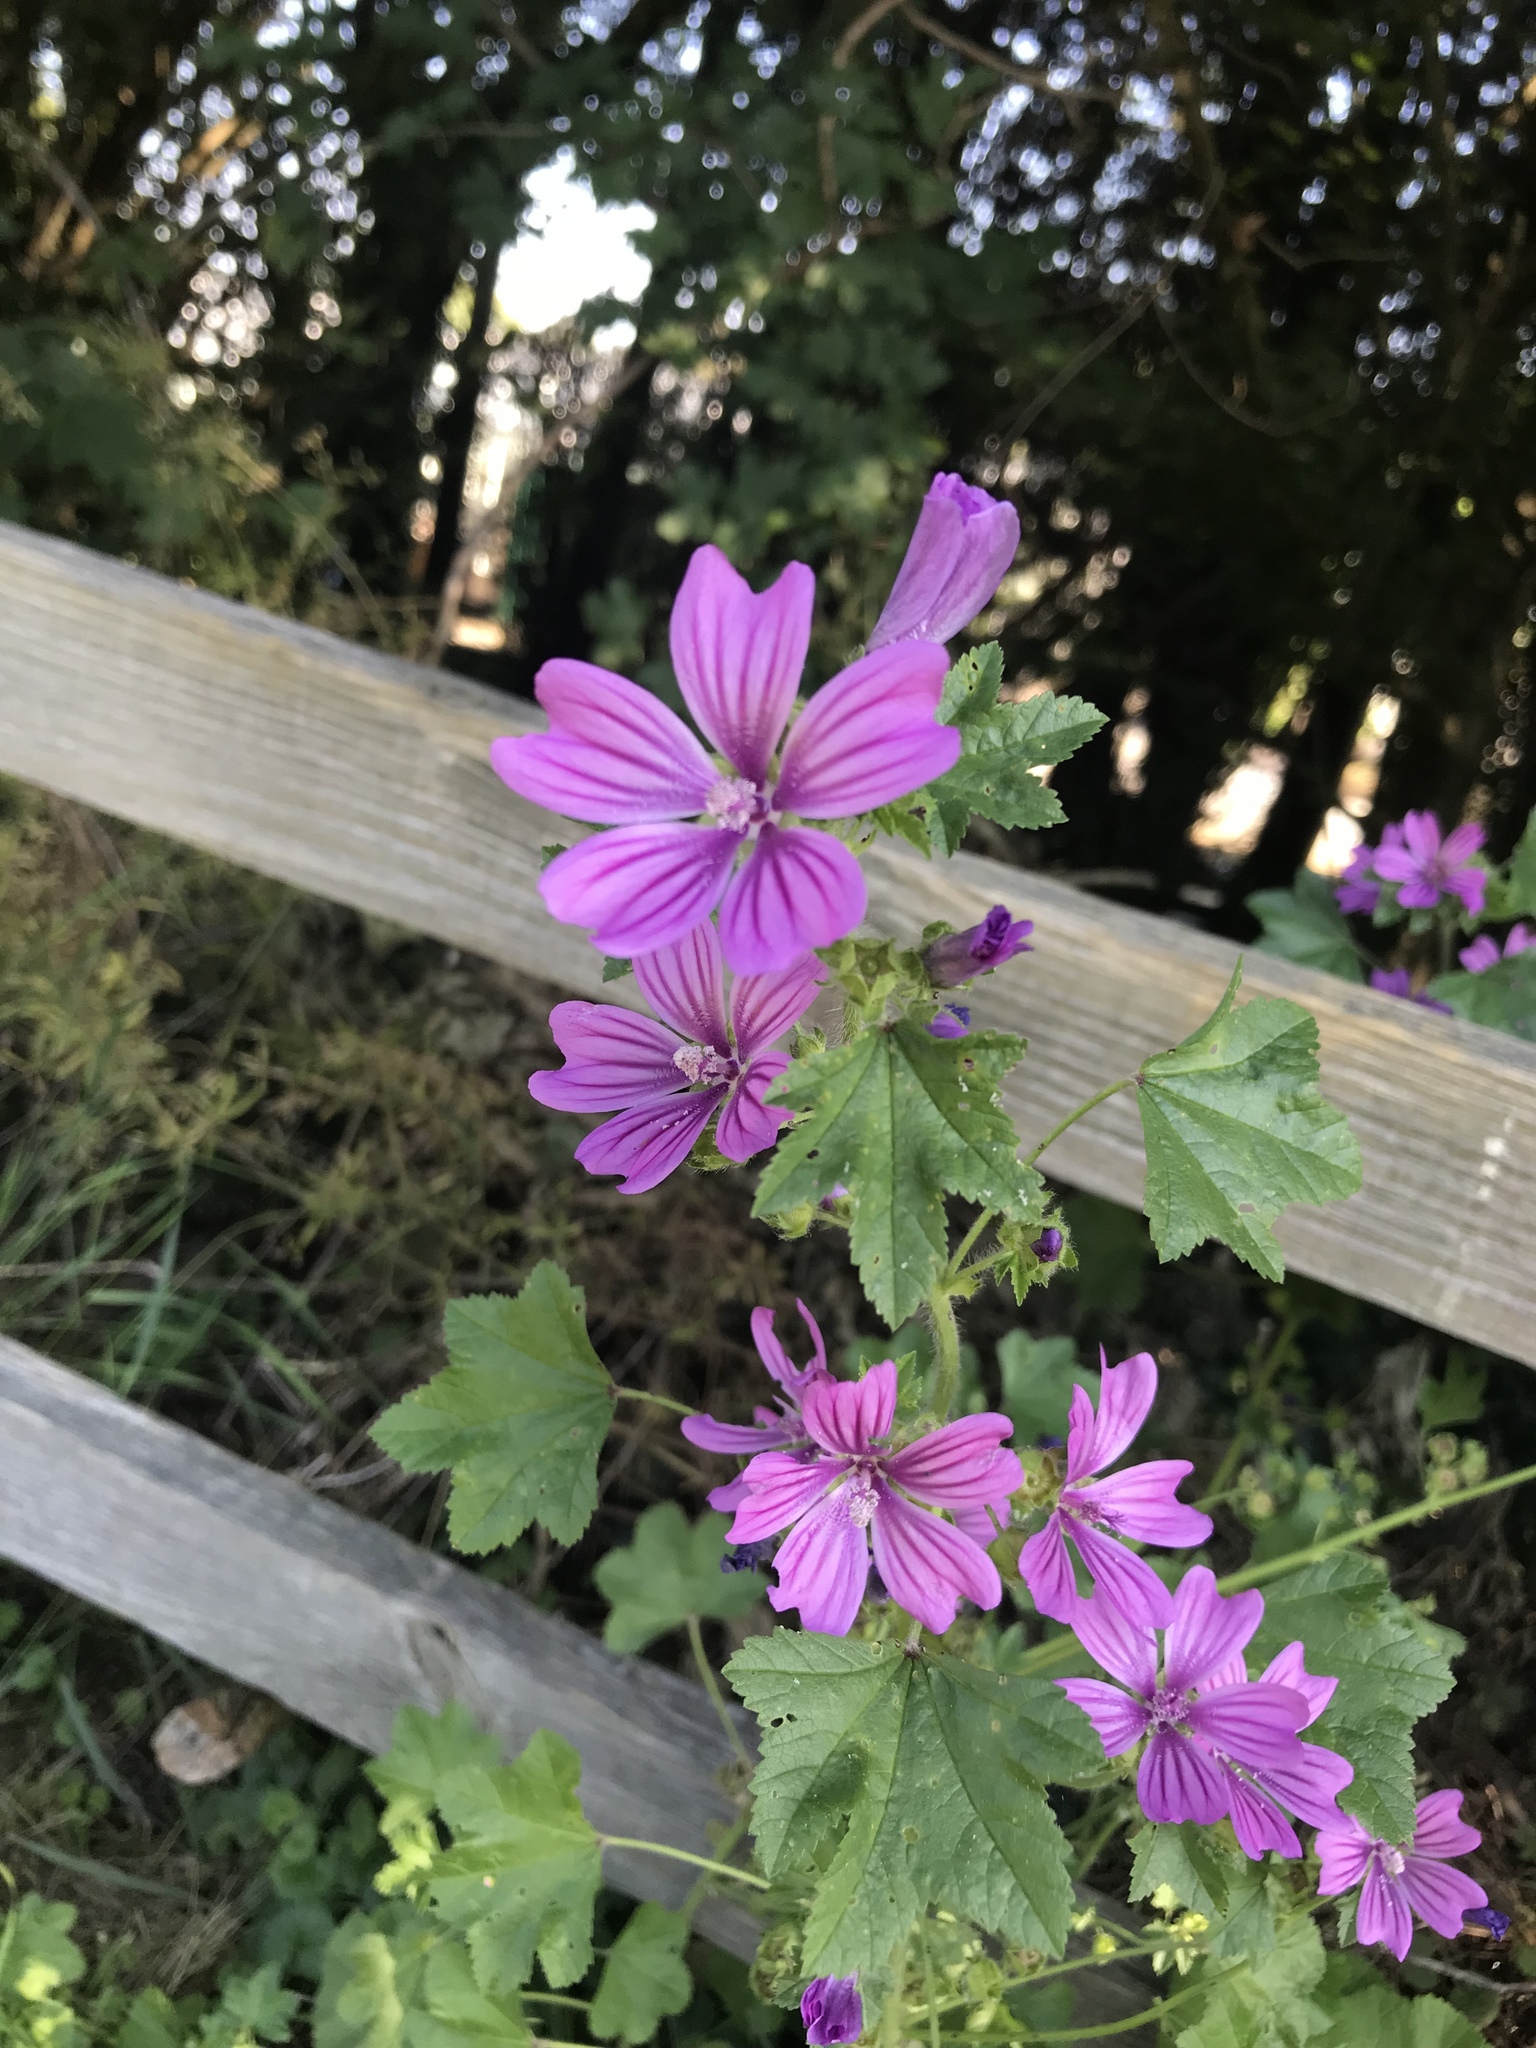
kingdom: Plantae
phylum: Tracheophyta
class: Magnoliopsida
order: Malvales
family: Malvaceae
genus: Malva
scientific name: Malva sylvestris
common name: Common mallow
